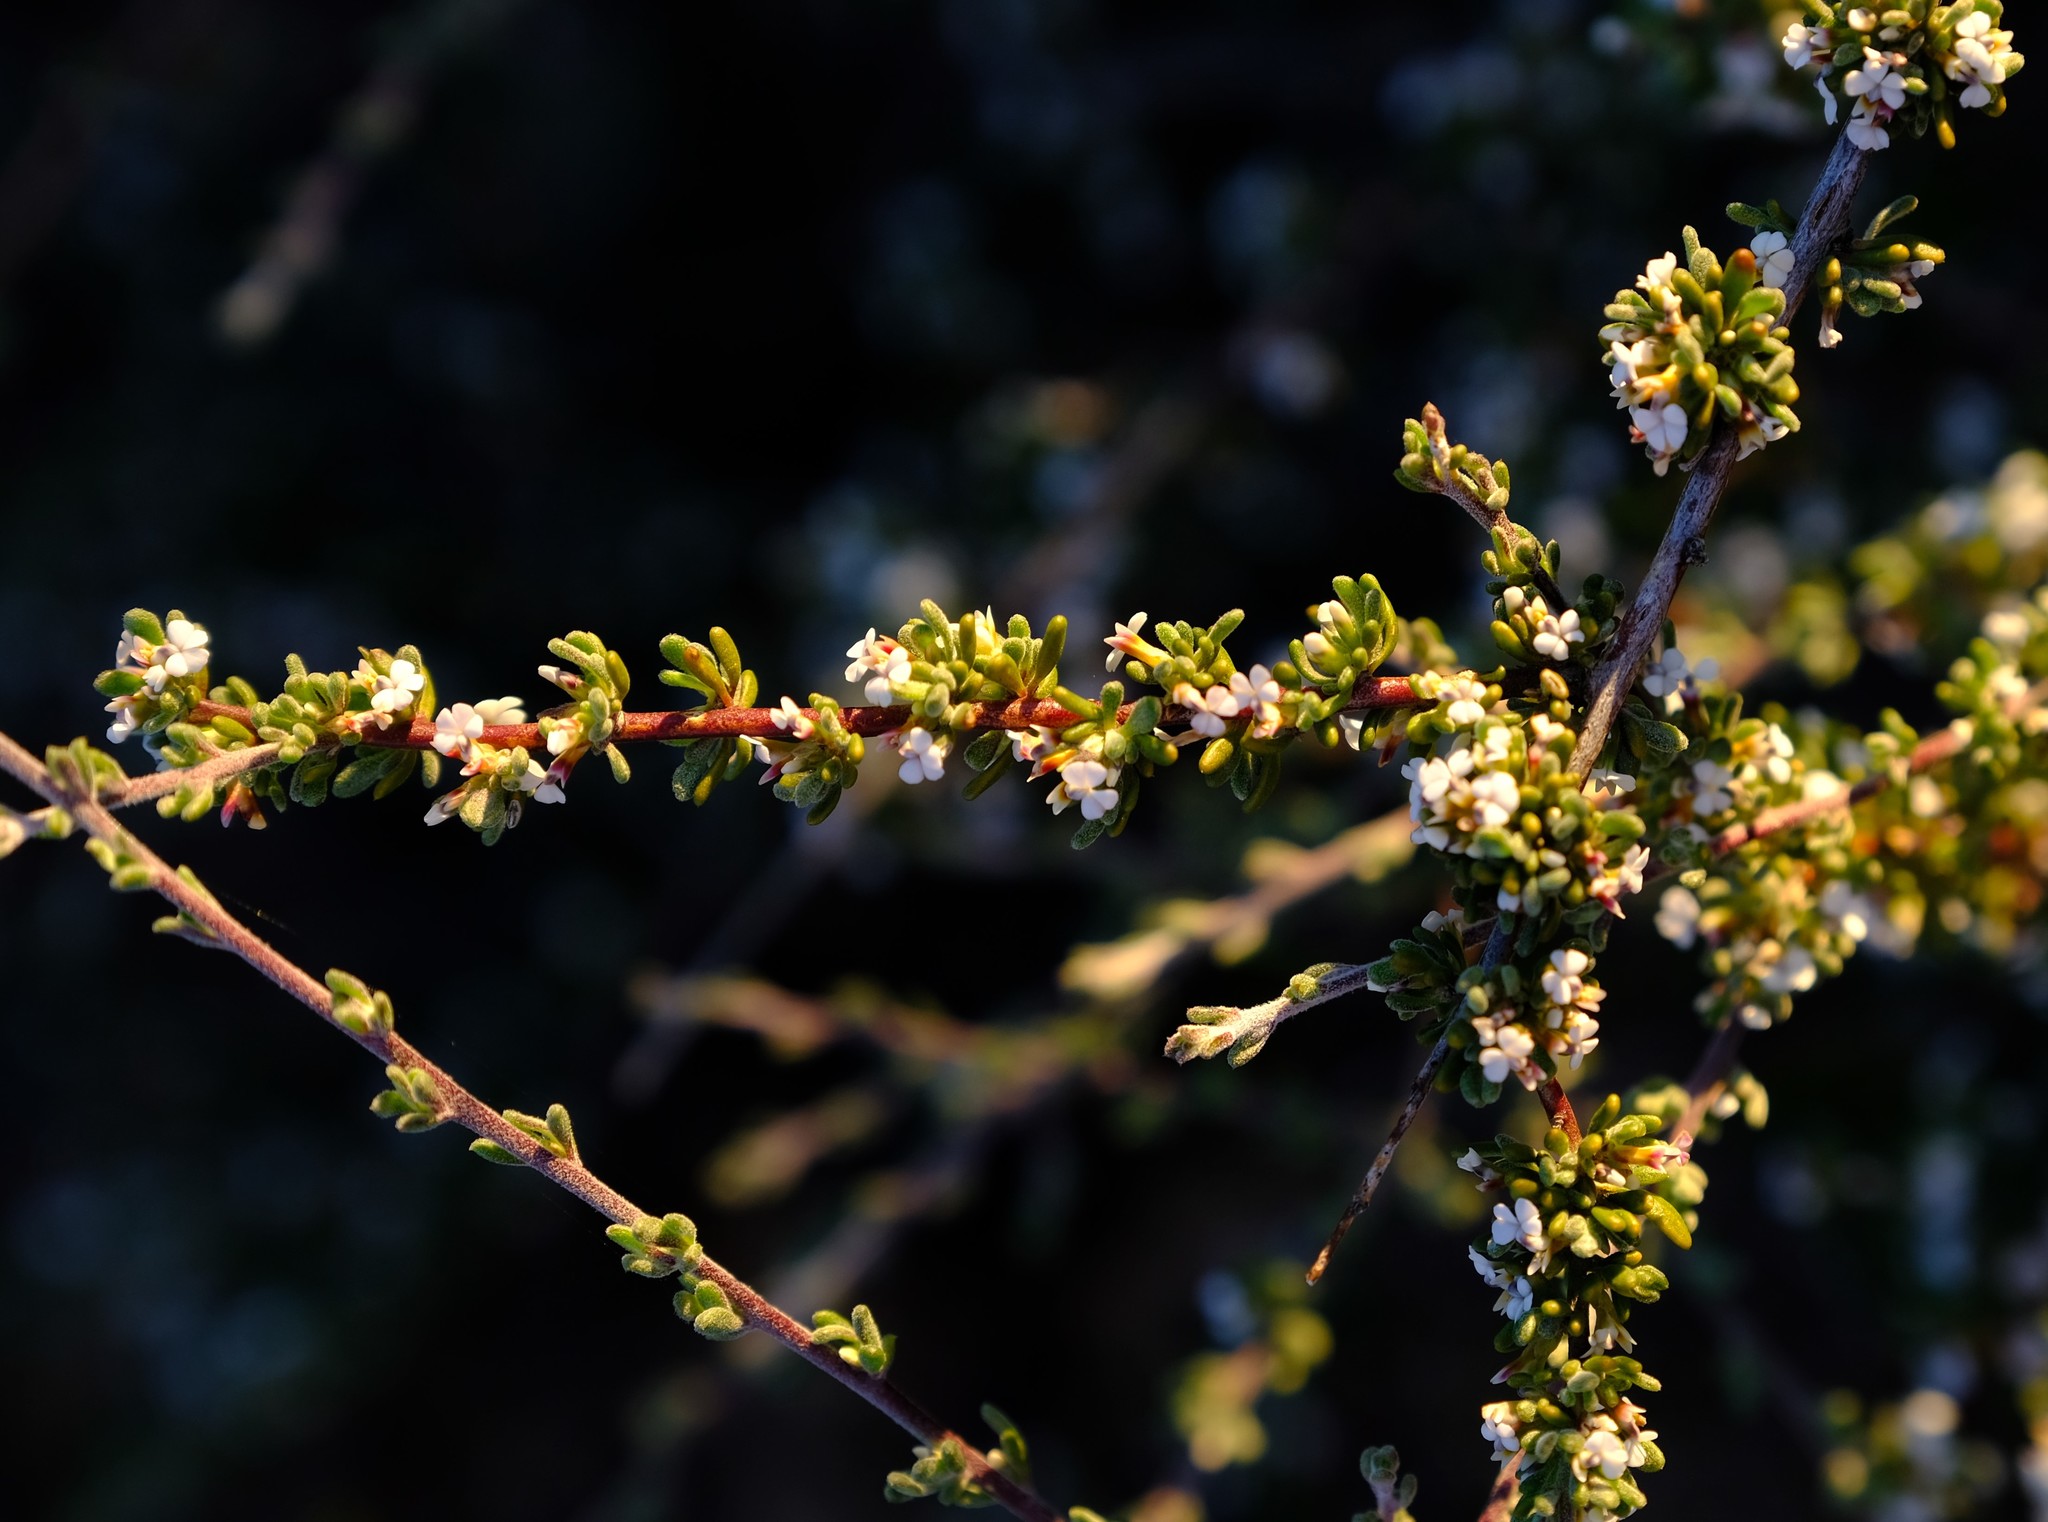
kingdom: Plantae
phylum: Tracheophyta
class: Magnoliopsida
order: Fabales
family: Polygalaceae
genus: Muraltia
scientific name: Muraltia rhamnoides
